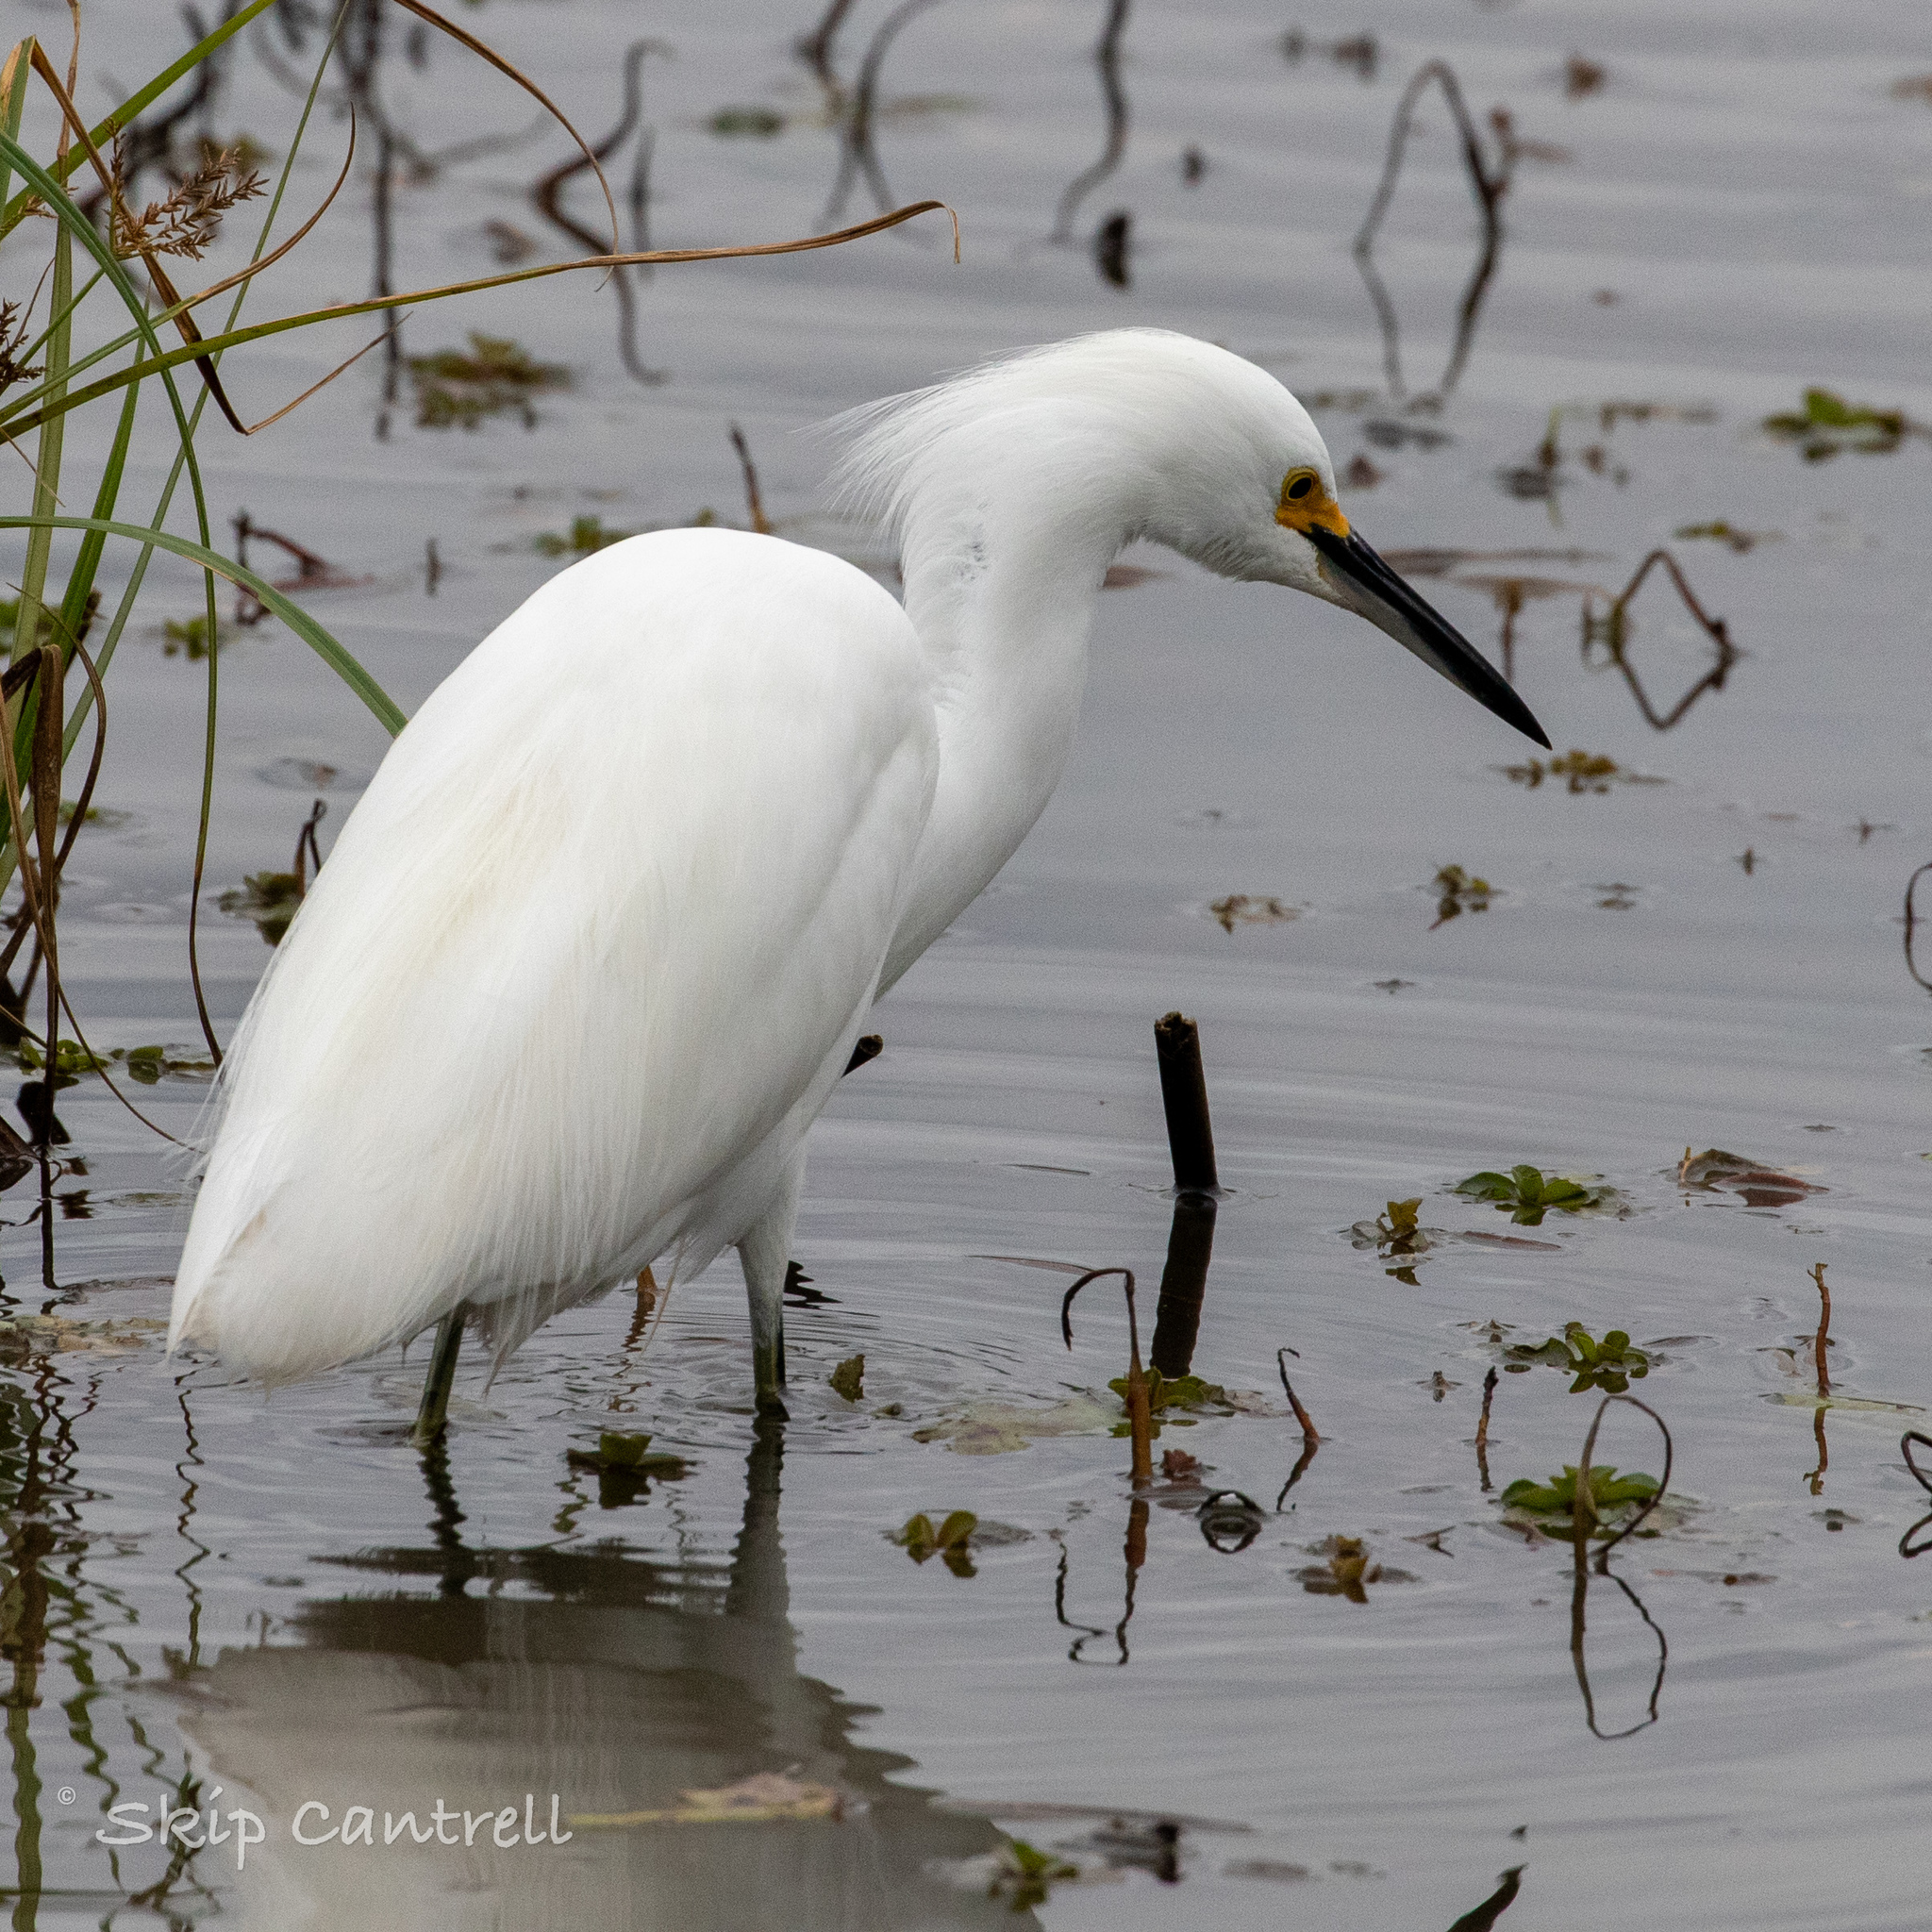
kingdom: Animalia
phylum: Chordata
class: Aves
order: Pelecaniformes
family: Ardeidae
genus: Egretta
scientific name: Egretta thula
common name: Snowy egret
